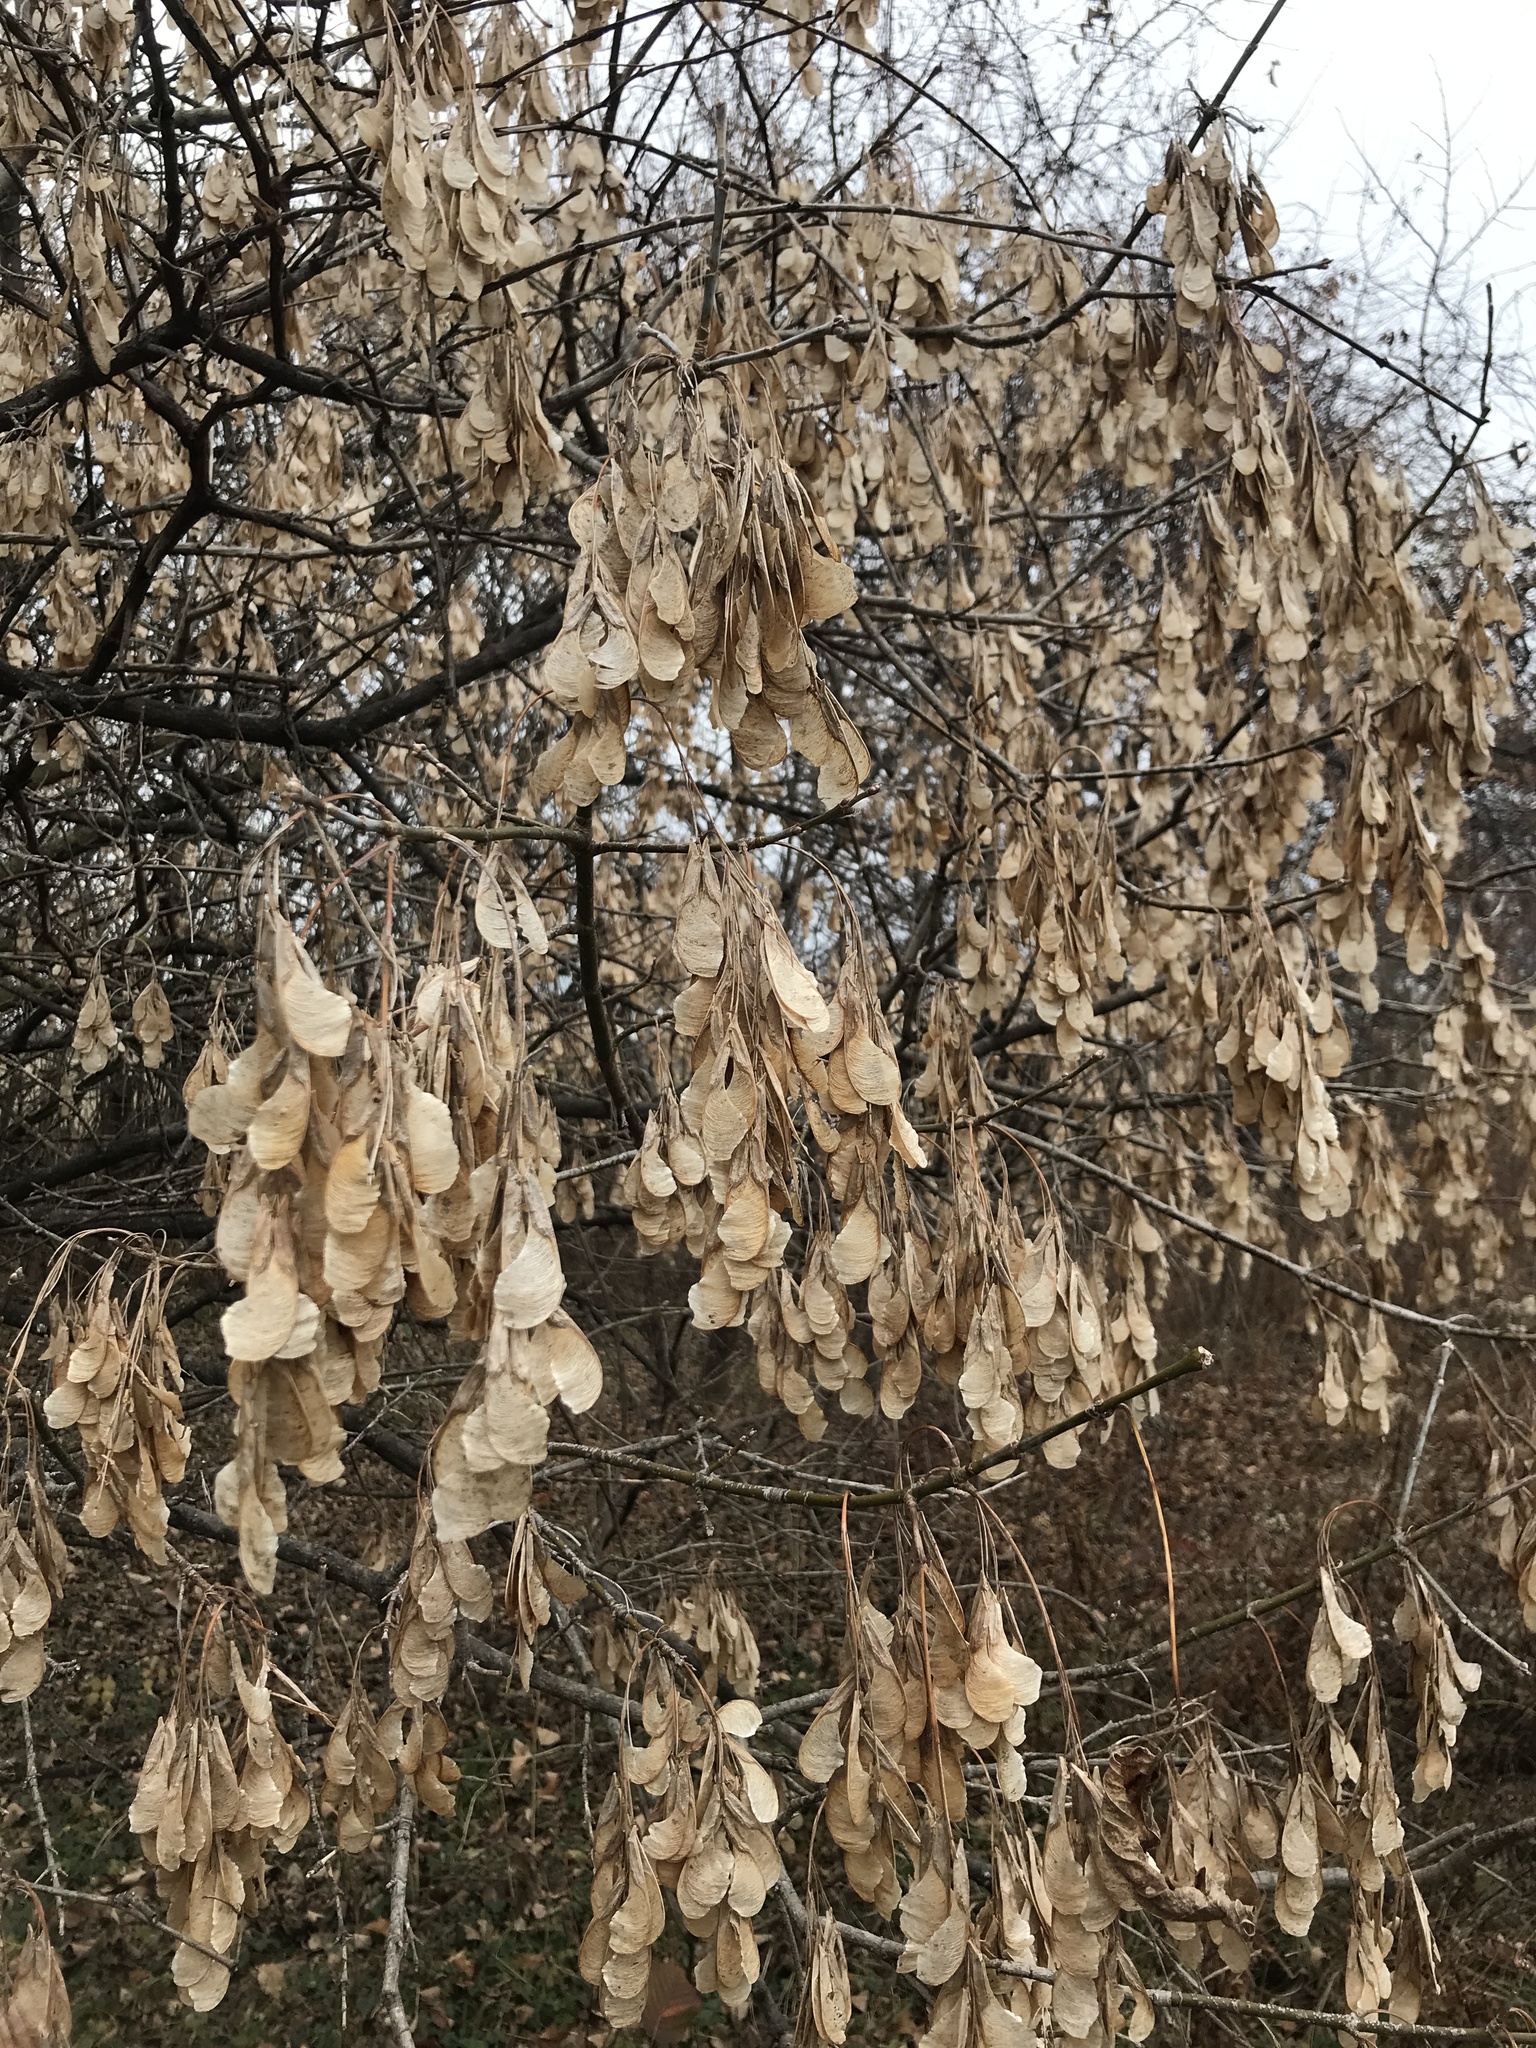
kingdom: Plantae
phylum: Tracheophyta
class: Magnoliopsida
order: Sapindales
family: Sapindaceae
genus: Acer
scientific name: Acer negundo
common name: Ashleaf maple
